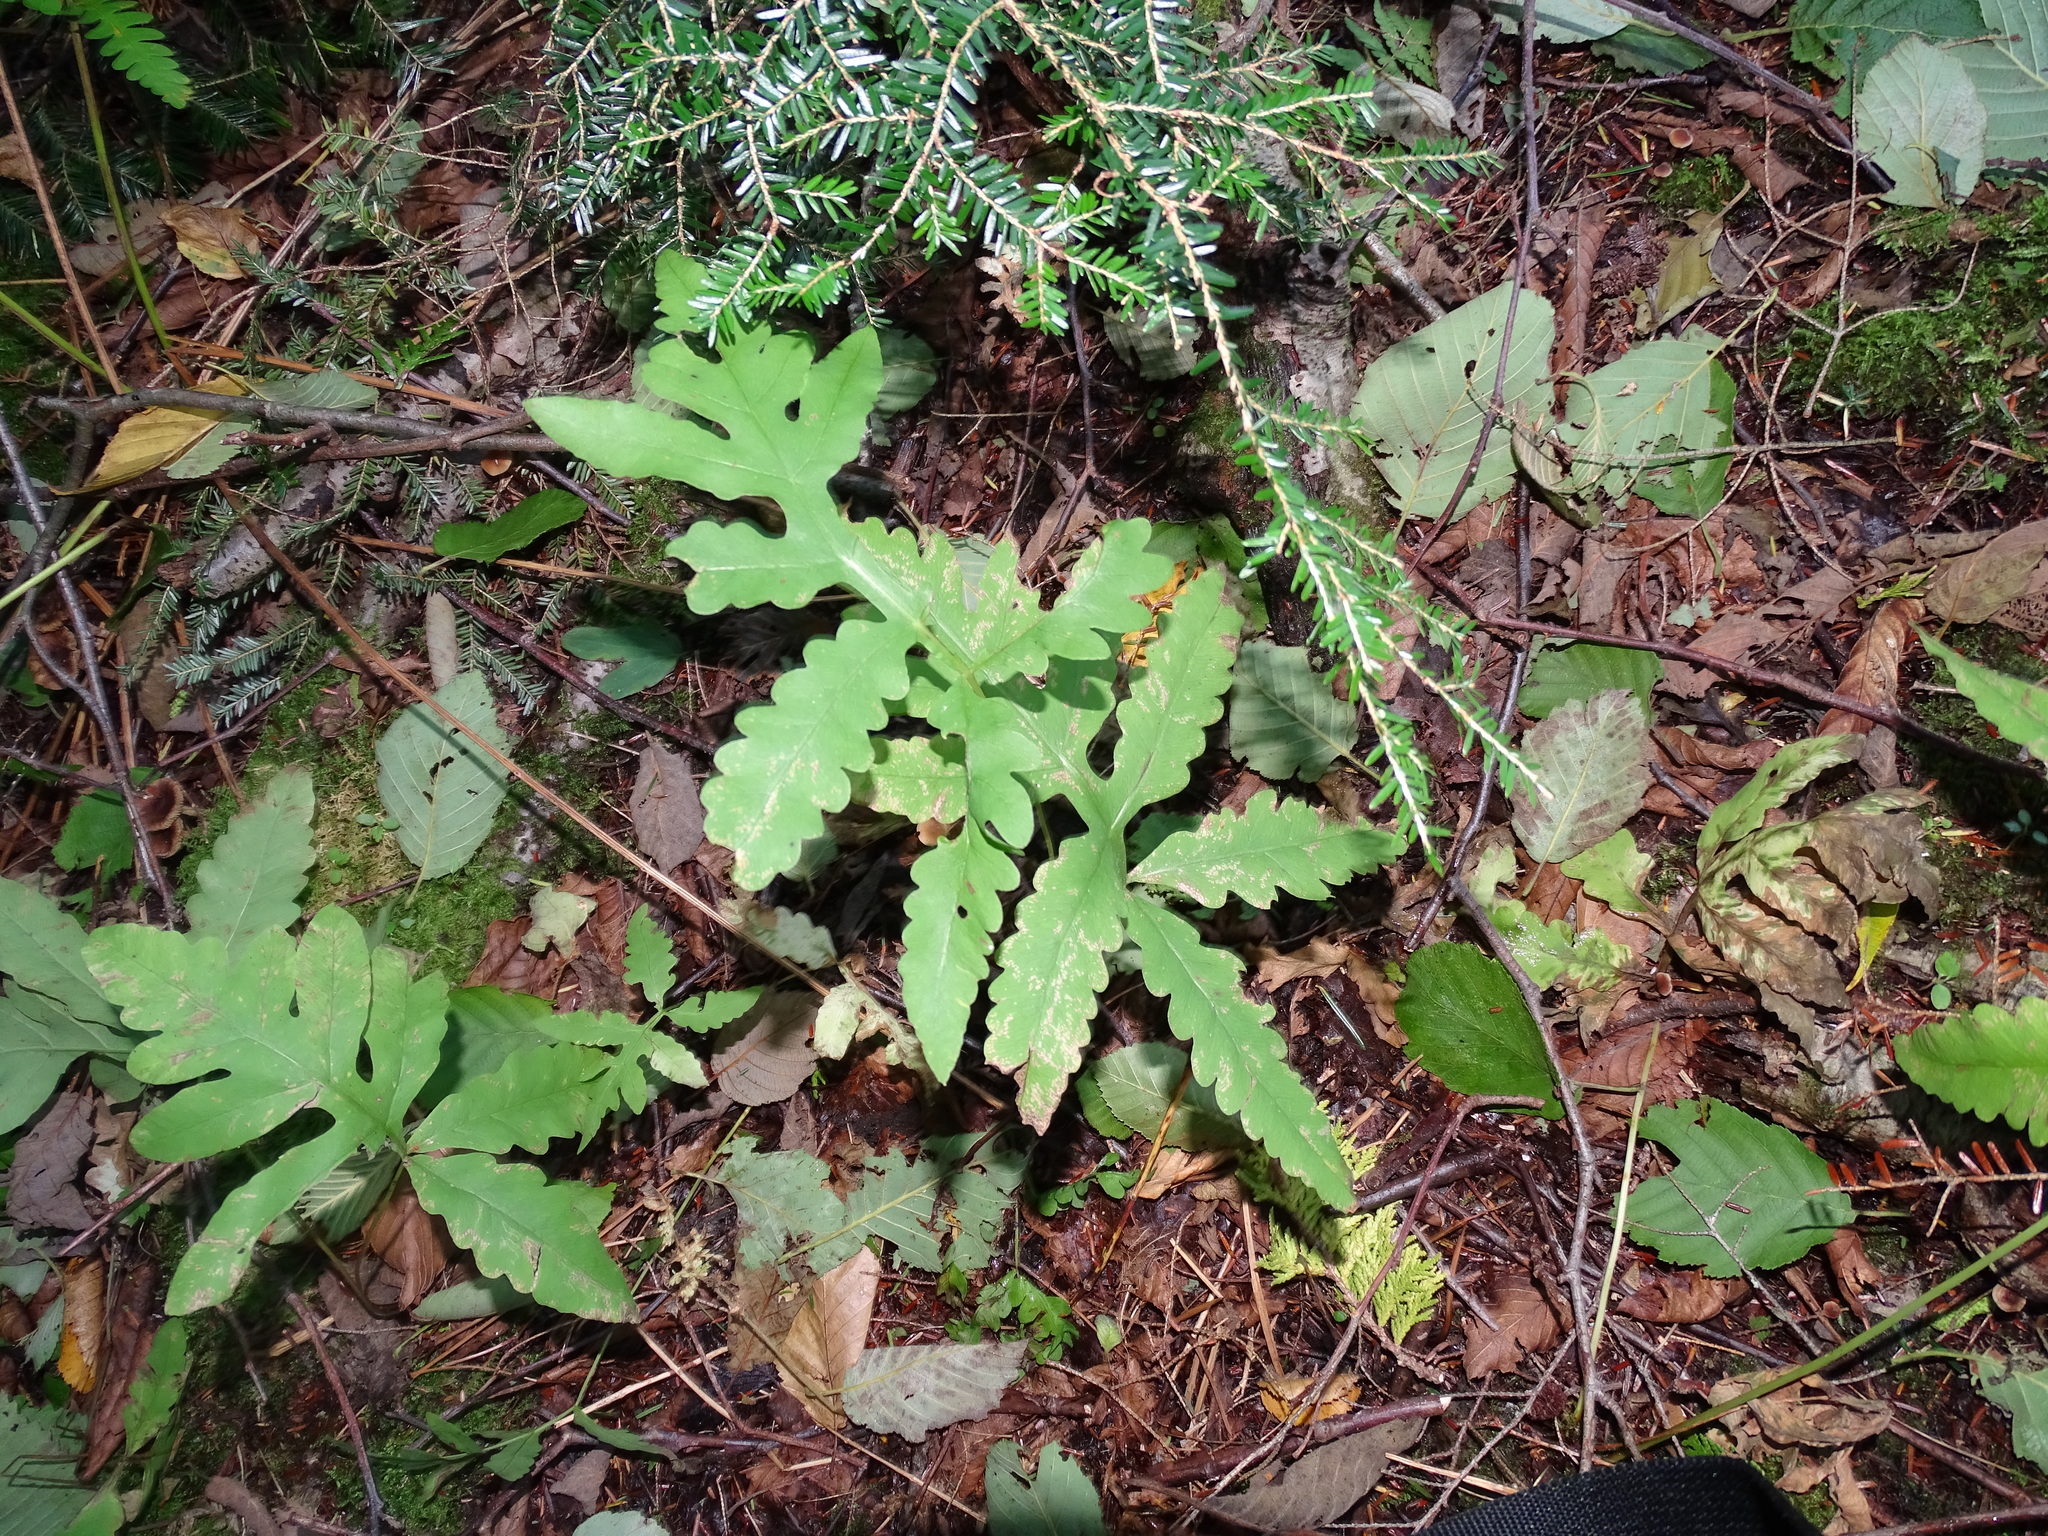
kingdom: Plantae
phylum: Tracheophyta
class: Polypodiopsida
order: Polypodiales
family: Onocleaceae
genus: Onoclea
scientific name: Onoclea sensibilis
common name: Sensitive fern
